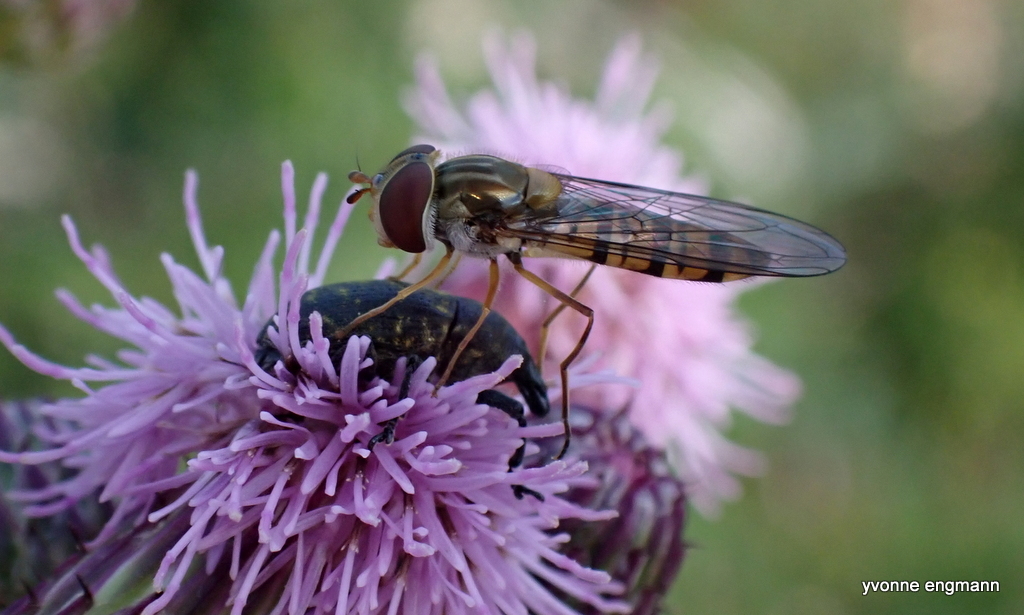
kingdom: Animalia
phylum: Arthropoda
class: Insecta
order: Diptera
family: Syrphidae
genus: Episyrphus
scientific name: Episyrphus balteatus
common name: Marmalade hoverfly
